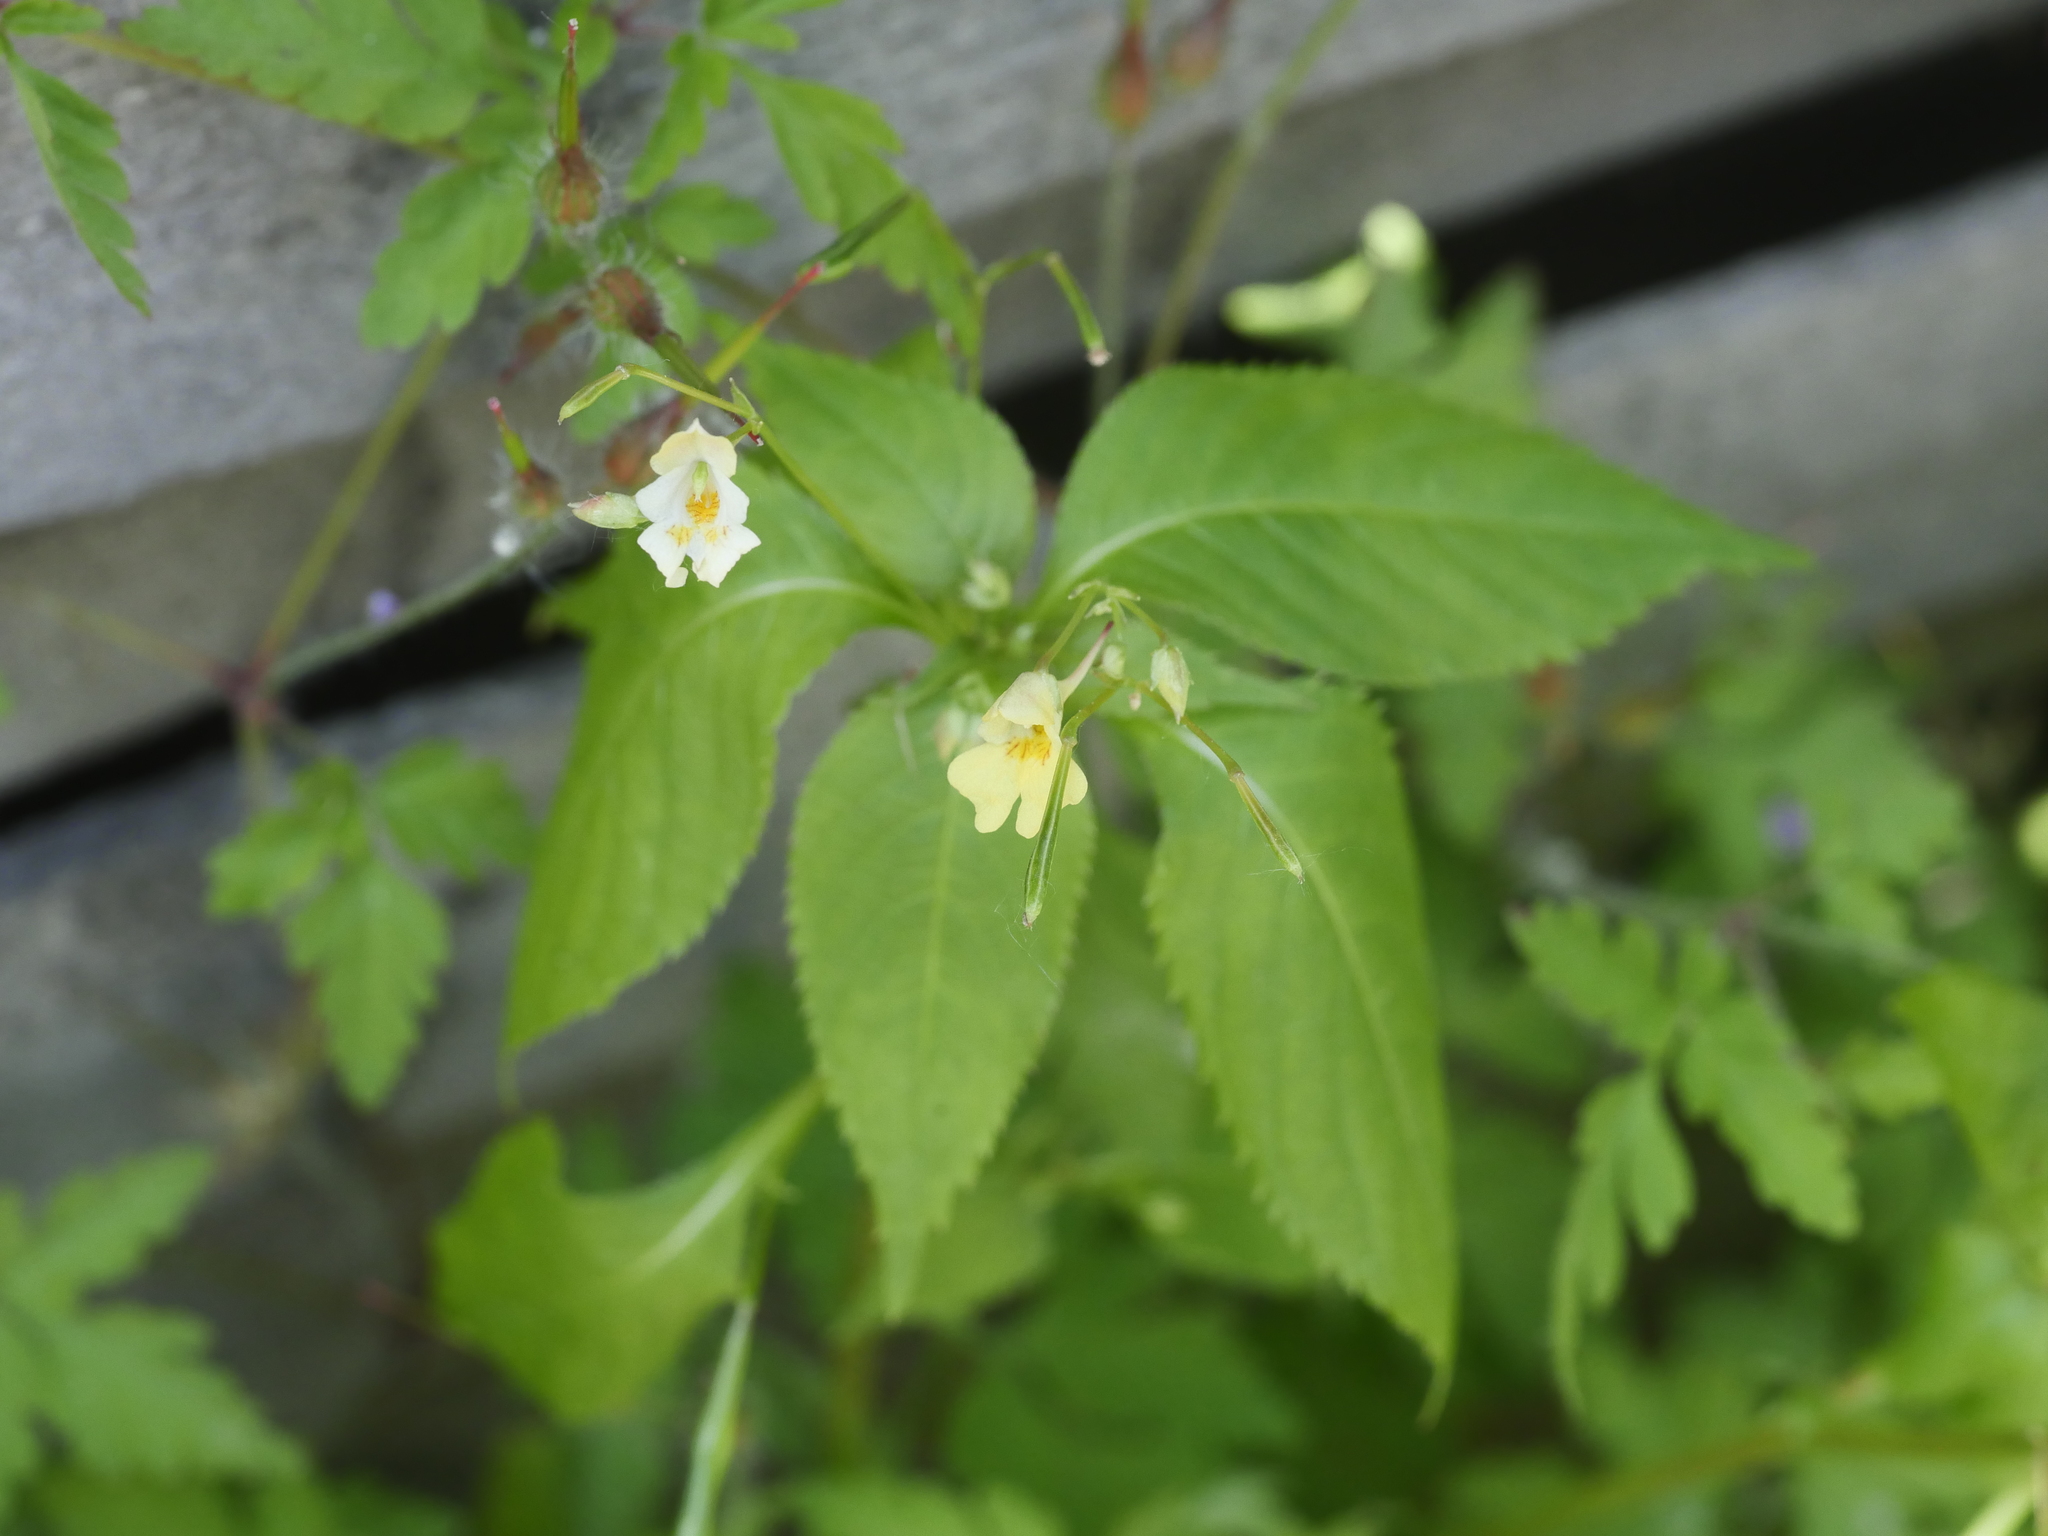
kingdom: Plantae
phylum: Tracheophyta
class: Magnoliopsida
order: Ericales
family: Balsaminaceae
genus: Impatiens
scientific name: Impatiens parviflora
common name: Small balsam
